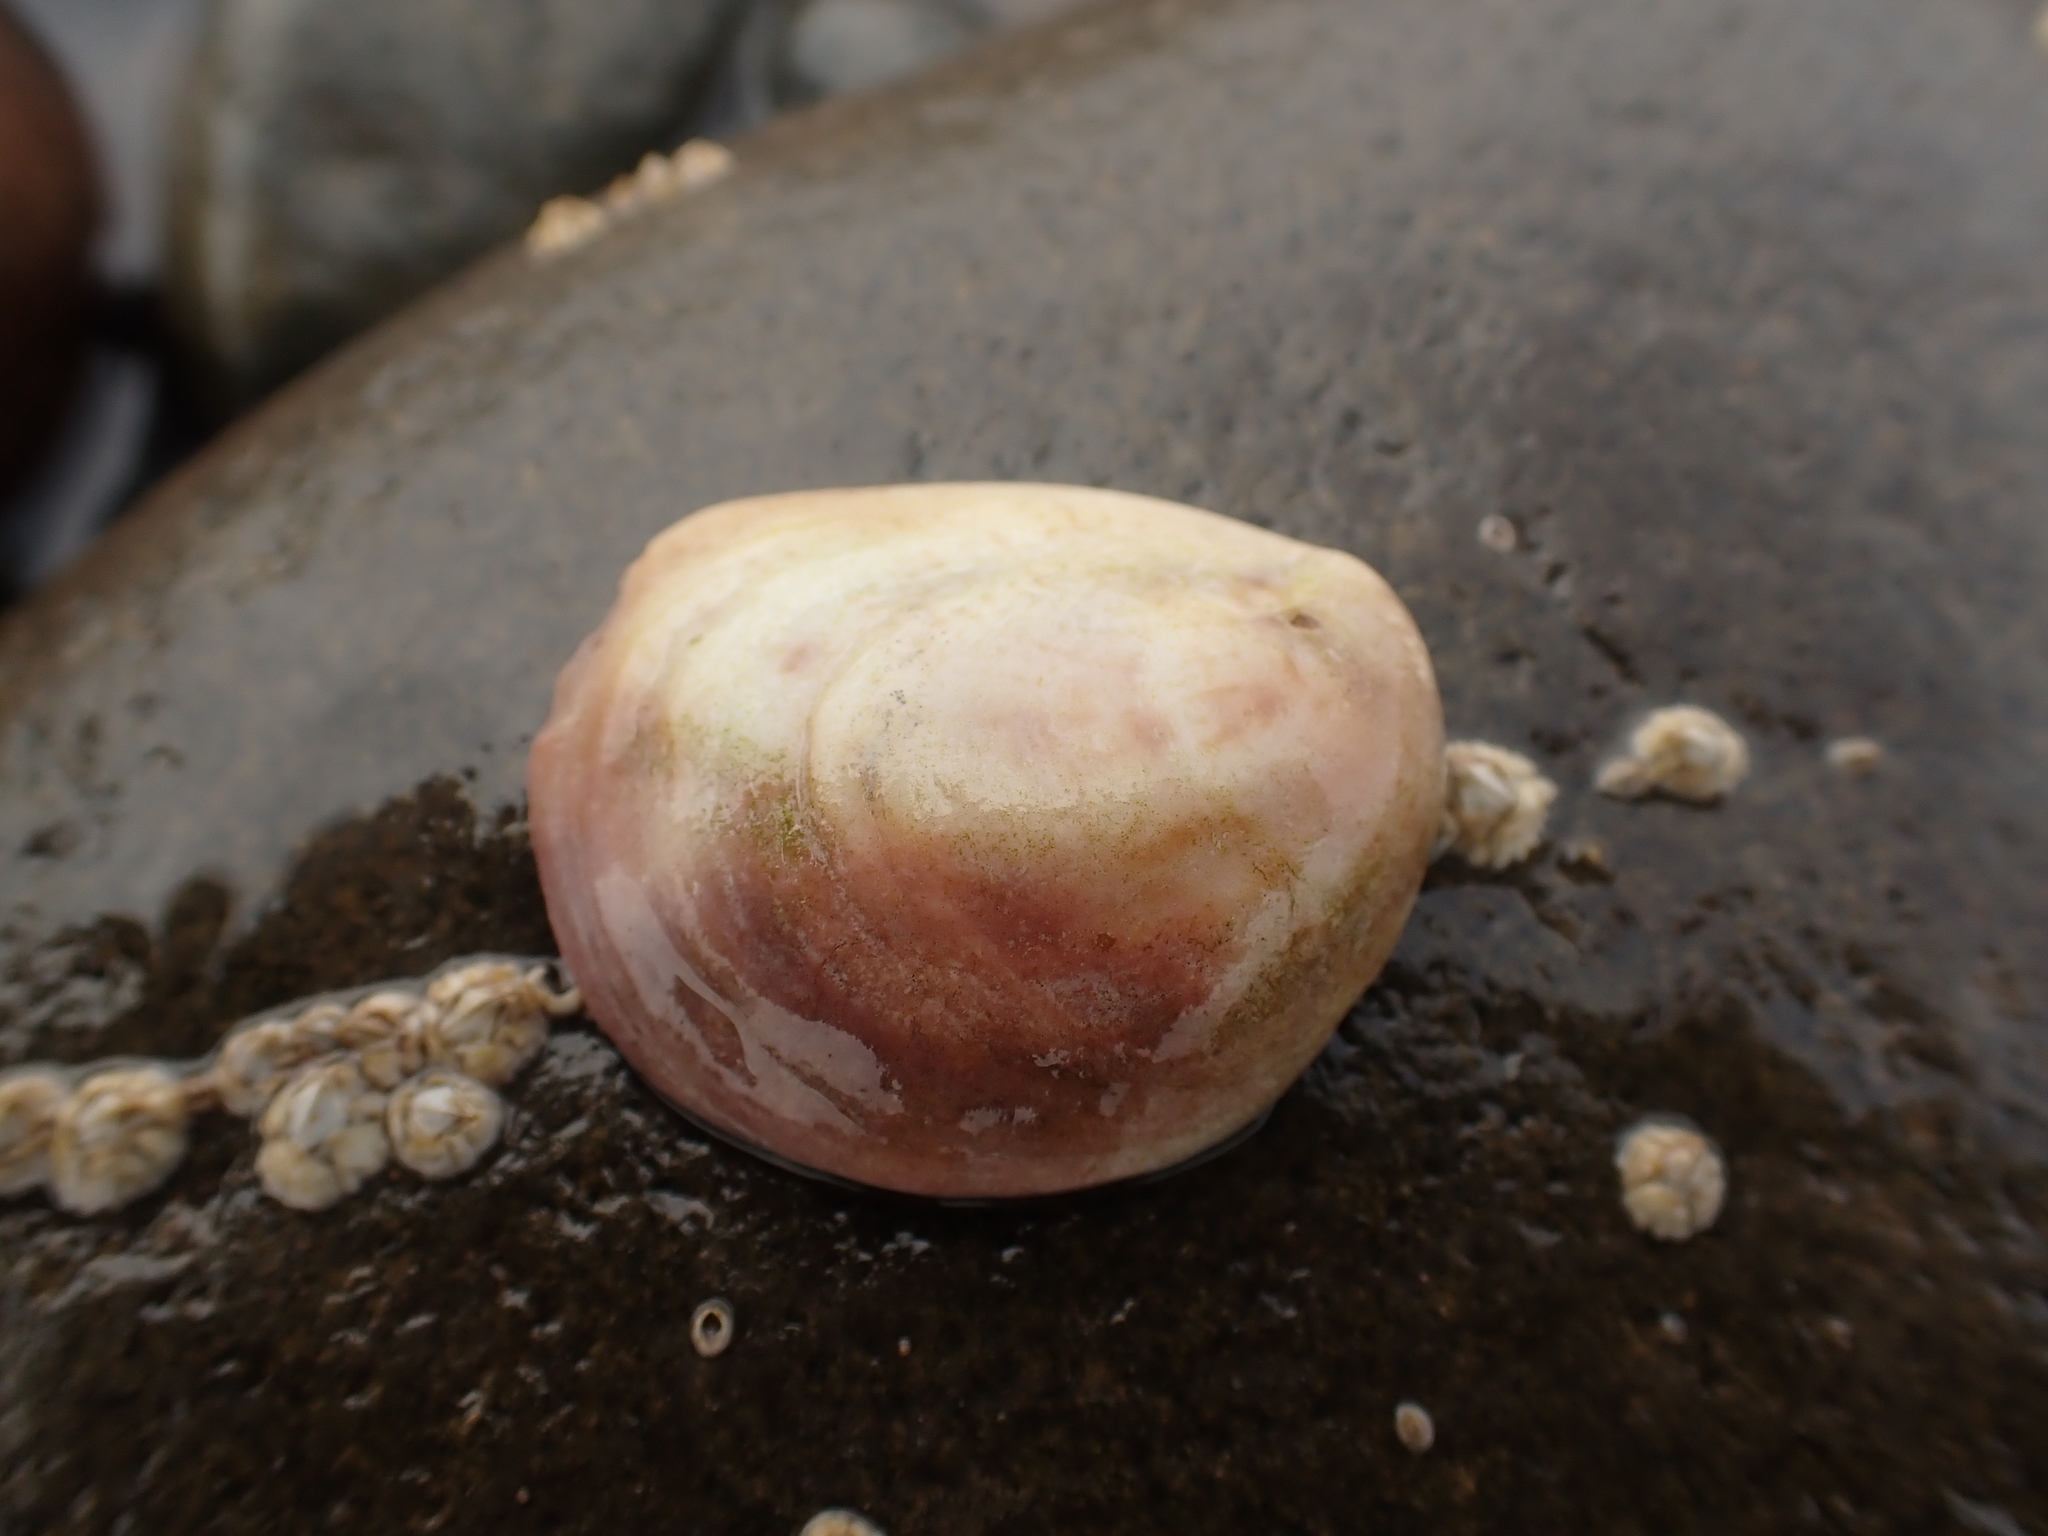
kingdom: Animalia
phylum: Mollusca
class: Gastropoda
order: Littorinimorpha
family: Calyptraeidae
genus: Crepidula
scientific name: Crepidula fornicata
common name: Slipper limpet
